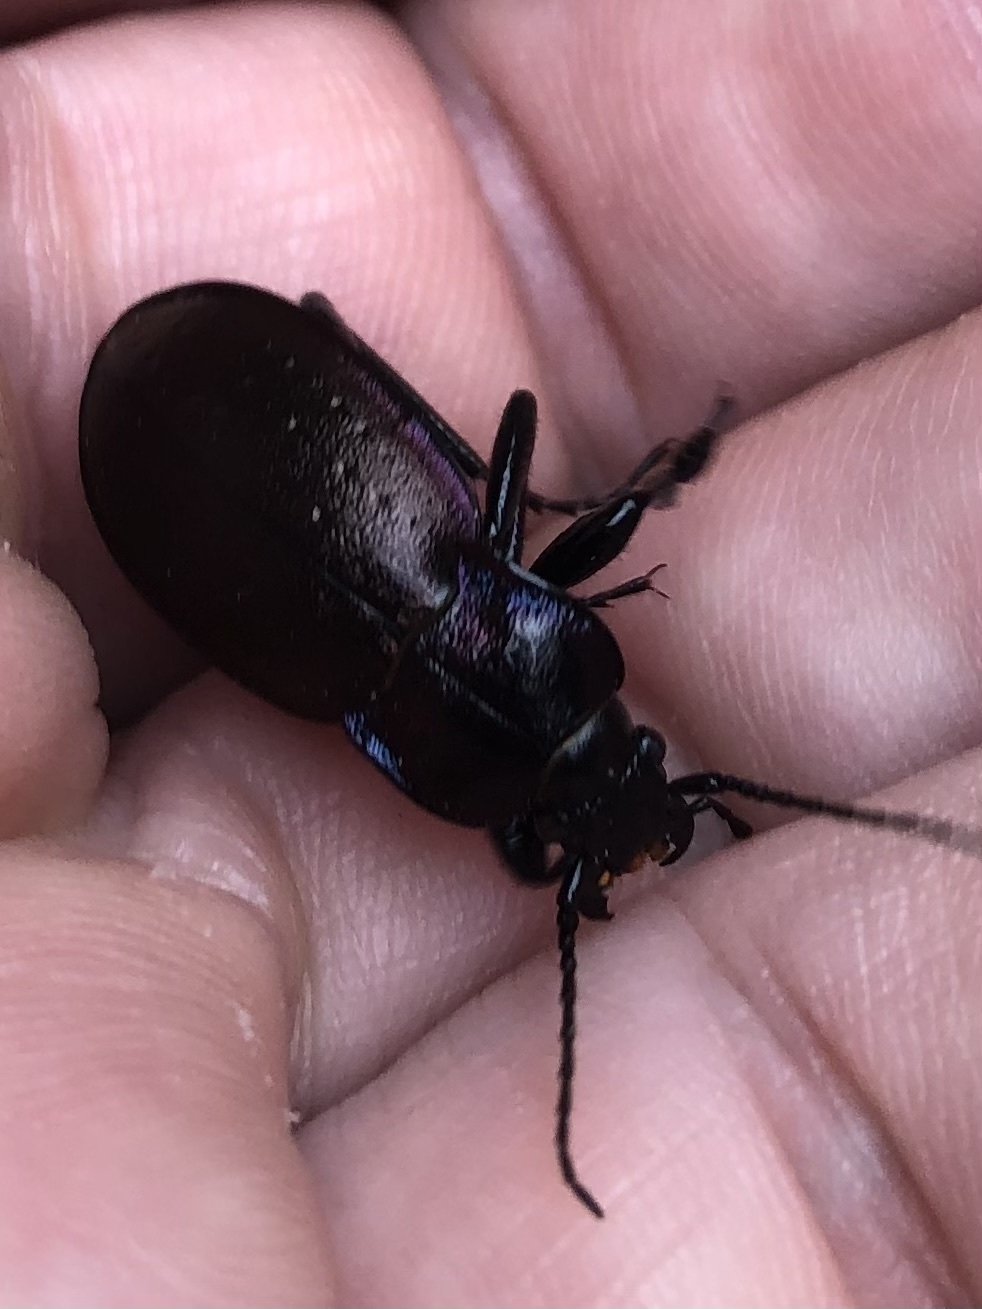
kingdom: Animalia
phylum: Arthropoda
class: Insecta
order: Coleoptera
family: Carabidae
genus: Carabus
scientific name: Carabus nemoralis
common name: European ground beetle
